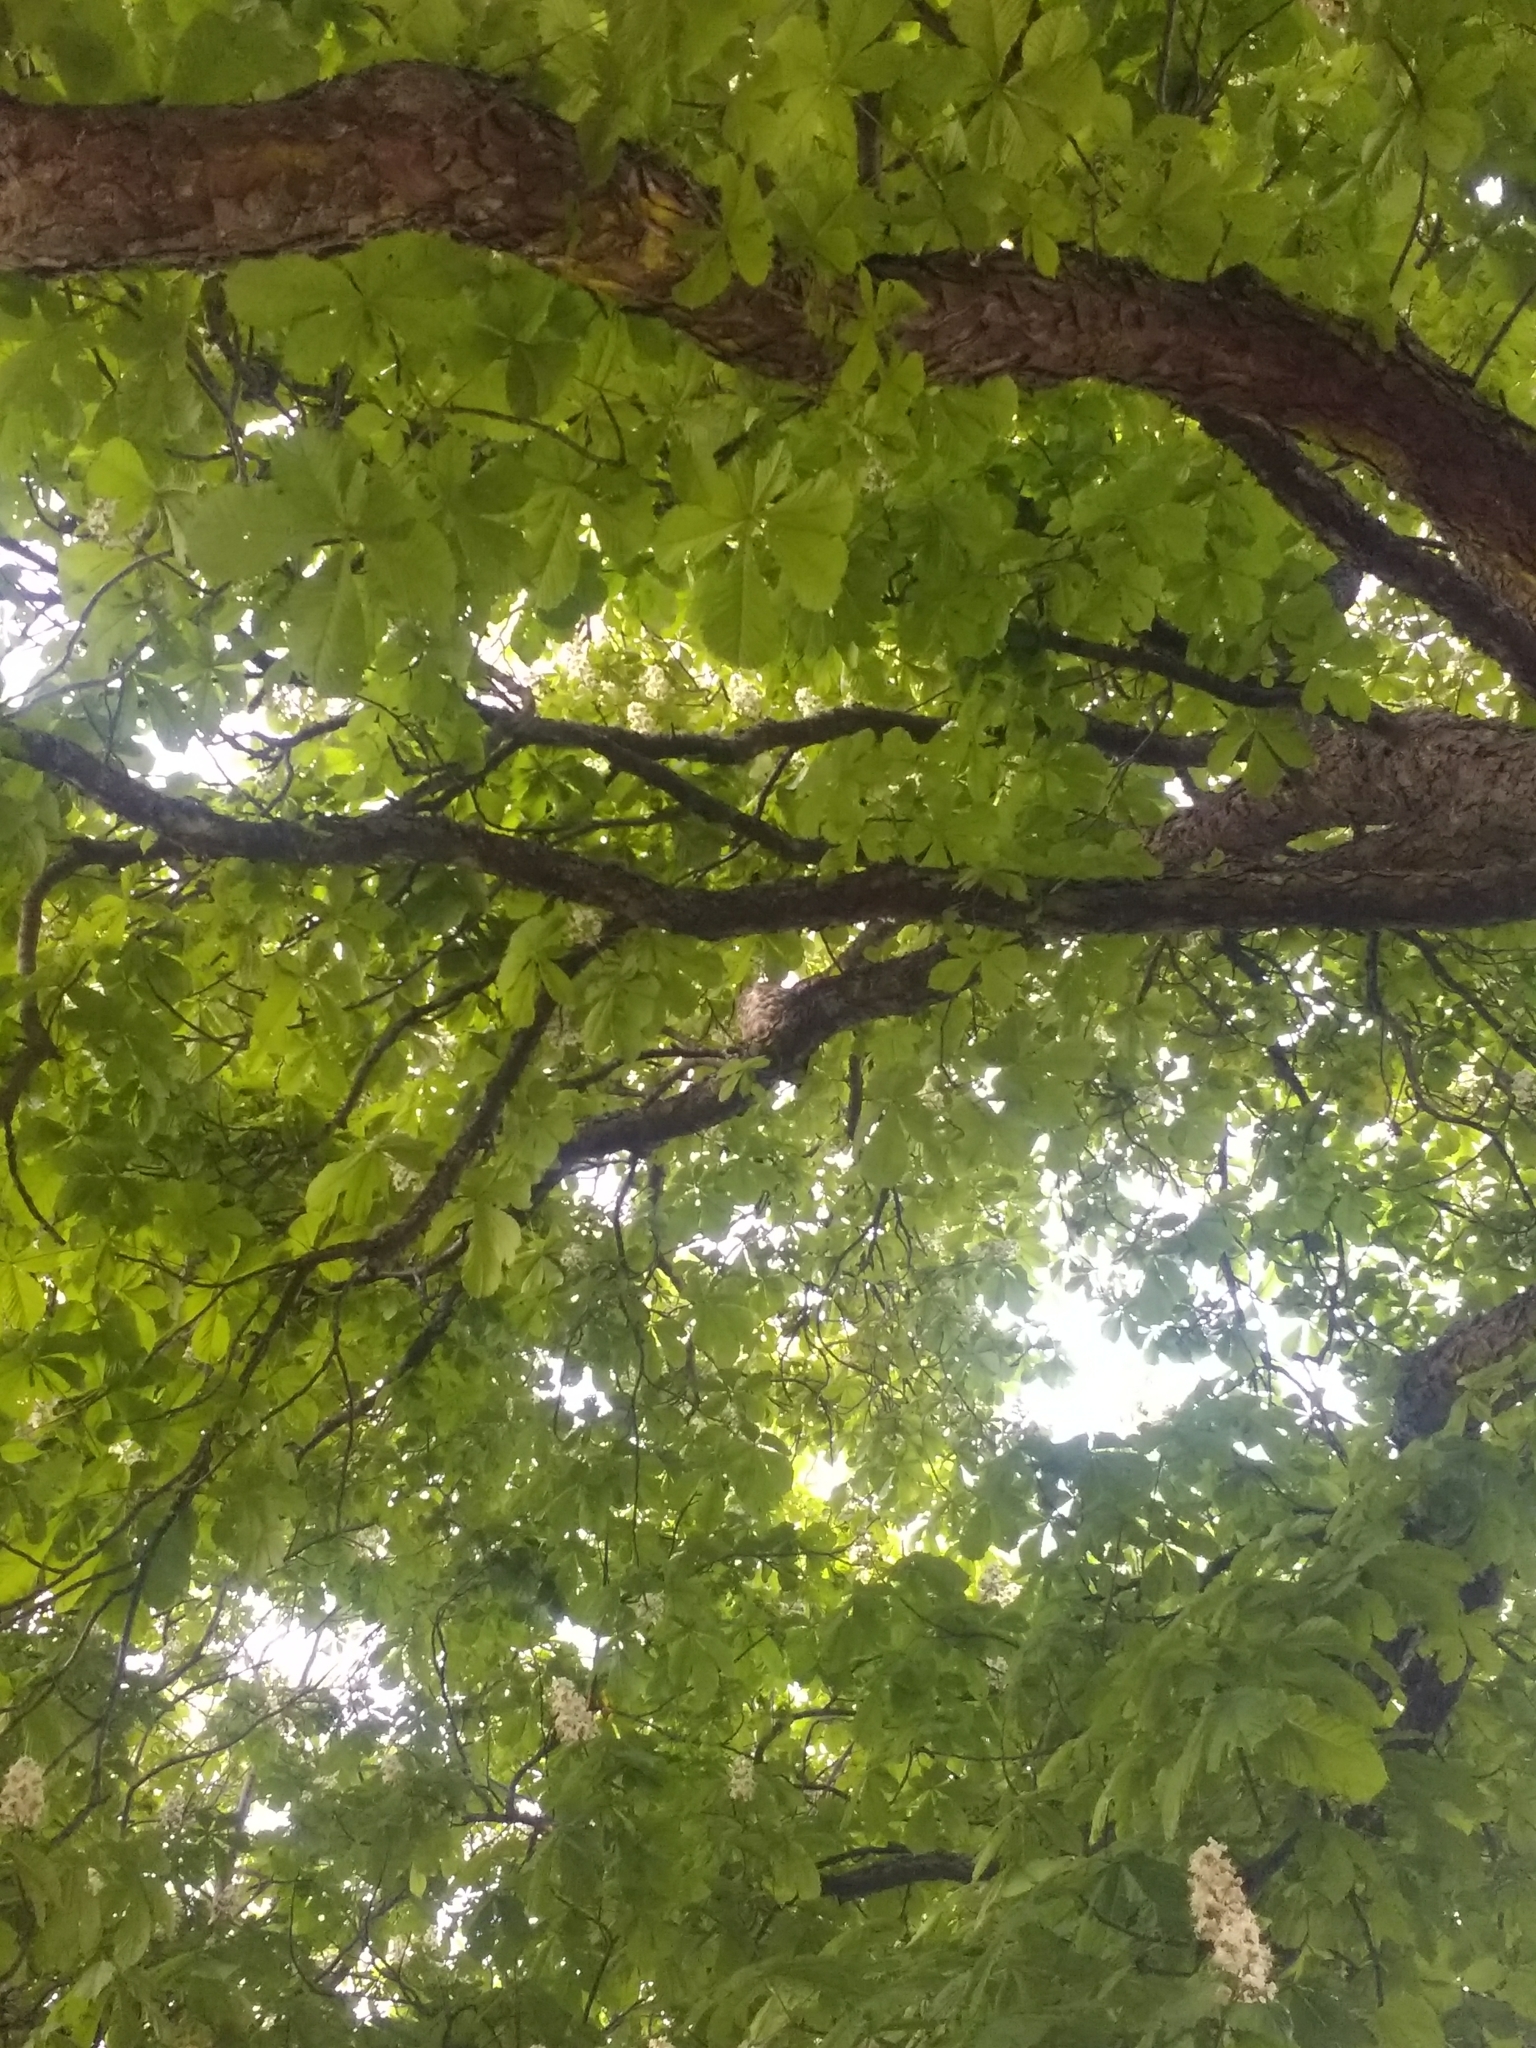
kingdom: Animalia
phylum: Chordata
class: Aves
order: Strigiformes
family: Strigidae
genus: Bubo
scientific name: Bubo virginianus
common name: Great horned owl
